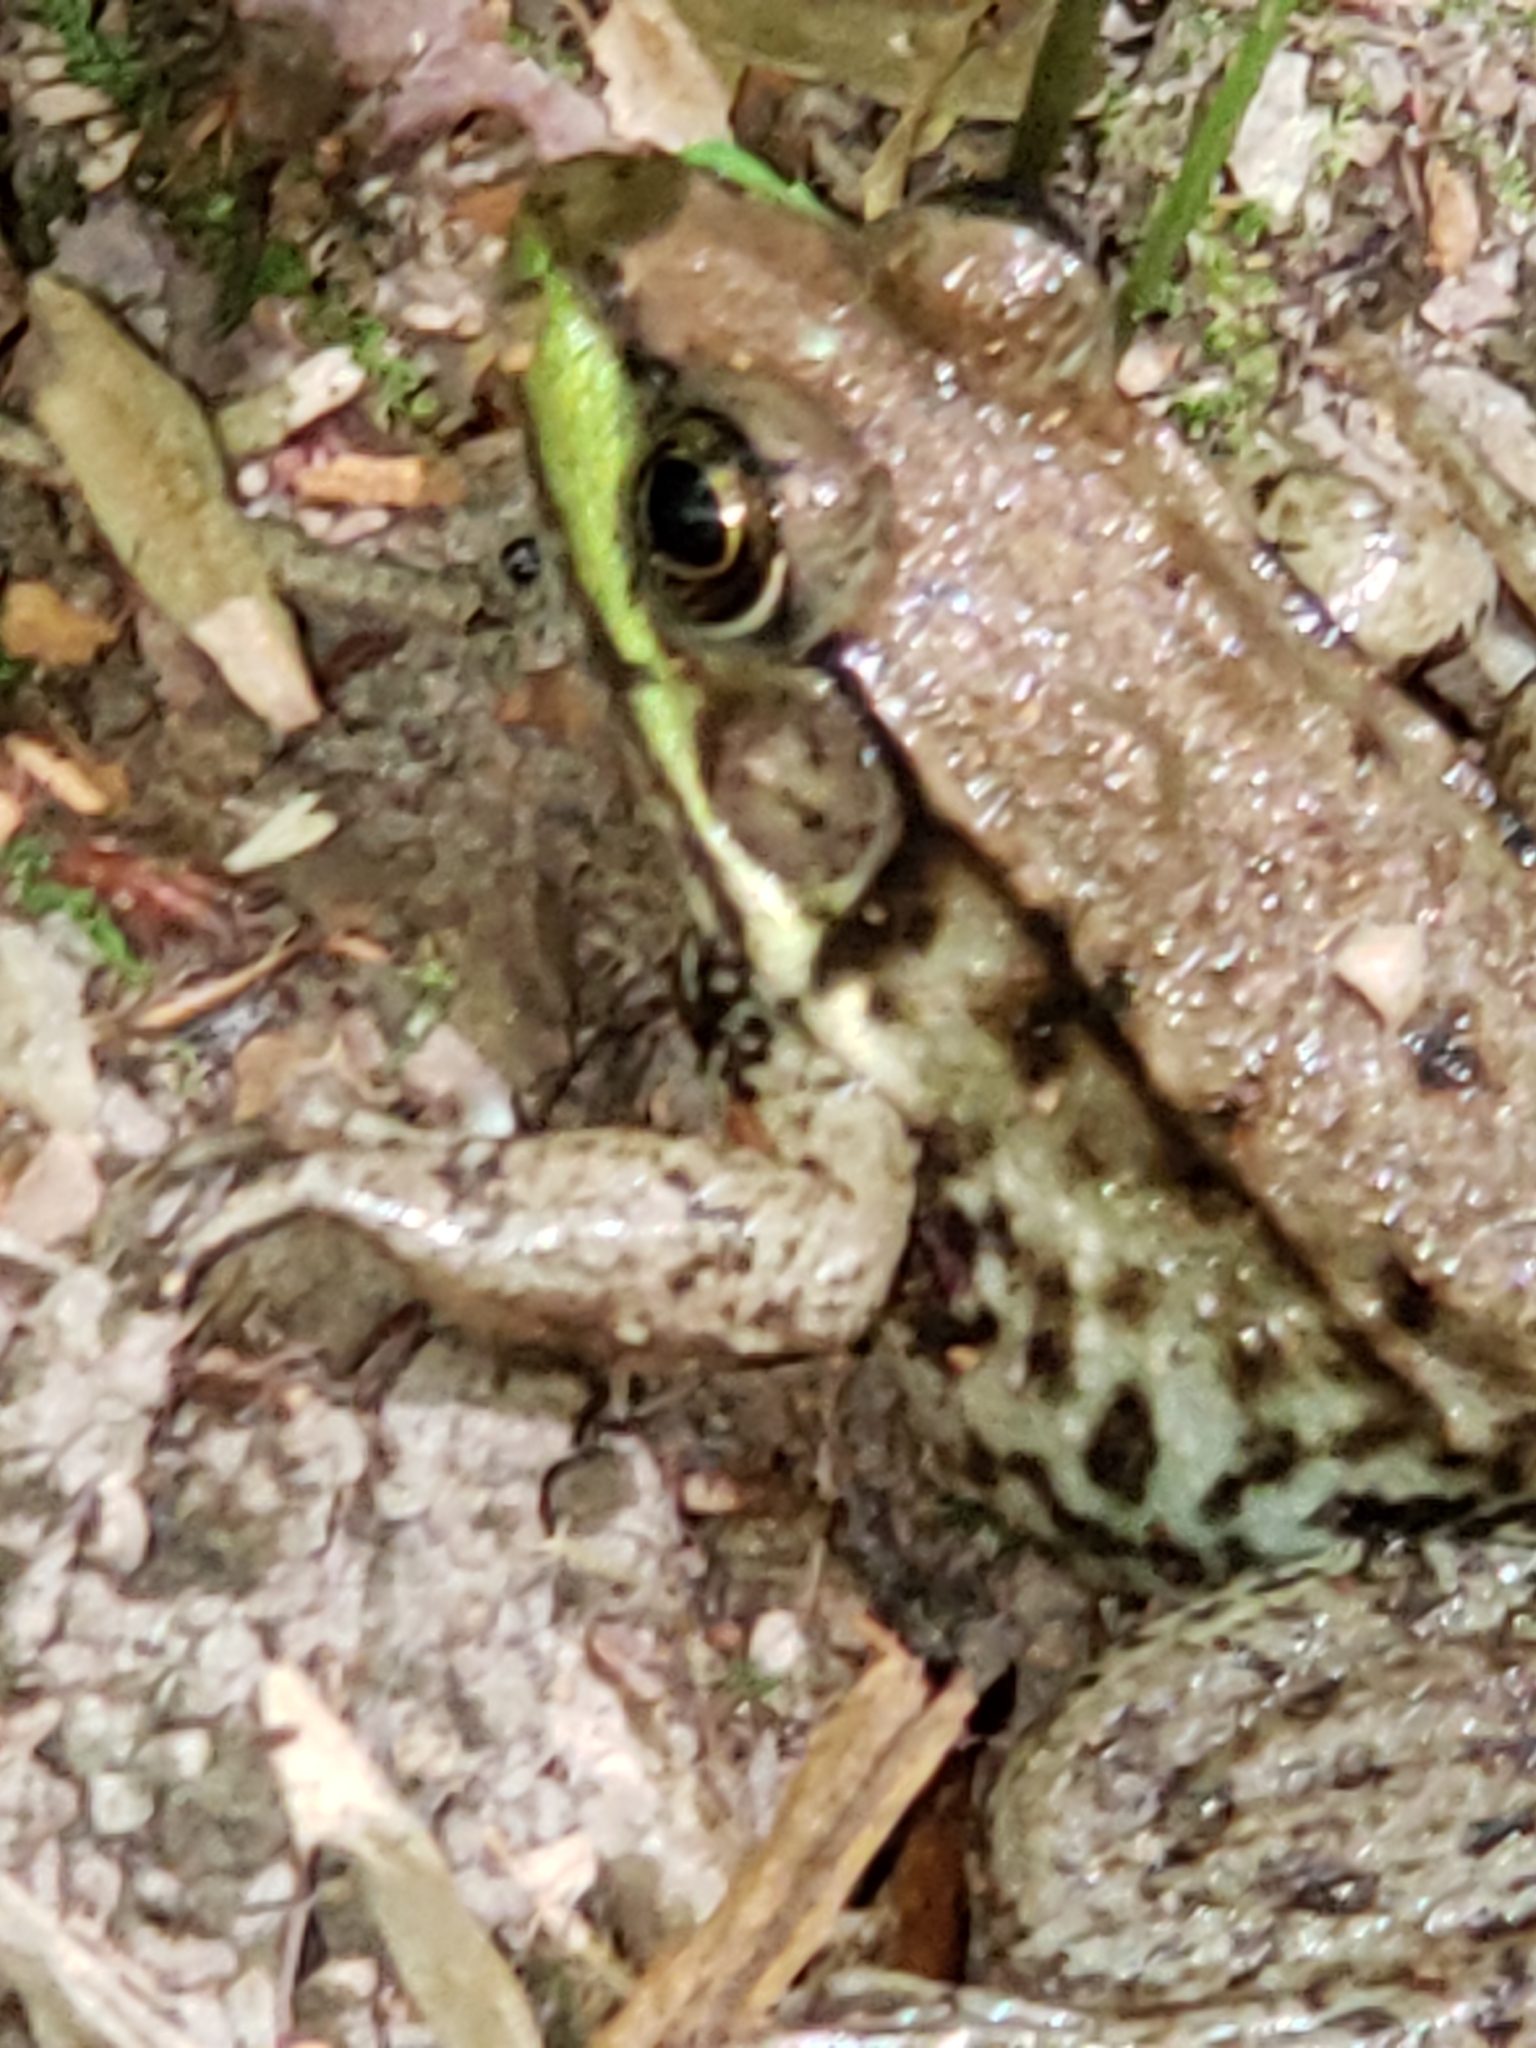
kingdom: Animalia
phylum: Chordata
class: Amphibia
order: Anura
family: Ranidae
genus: Lithobates
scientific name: Lithobates clamitans
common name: Green frog
